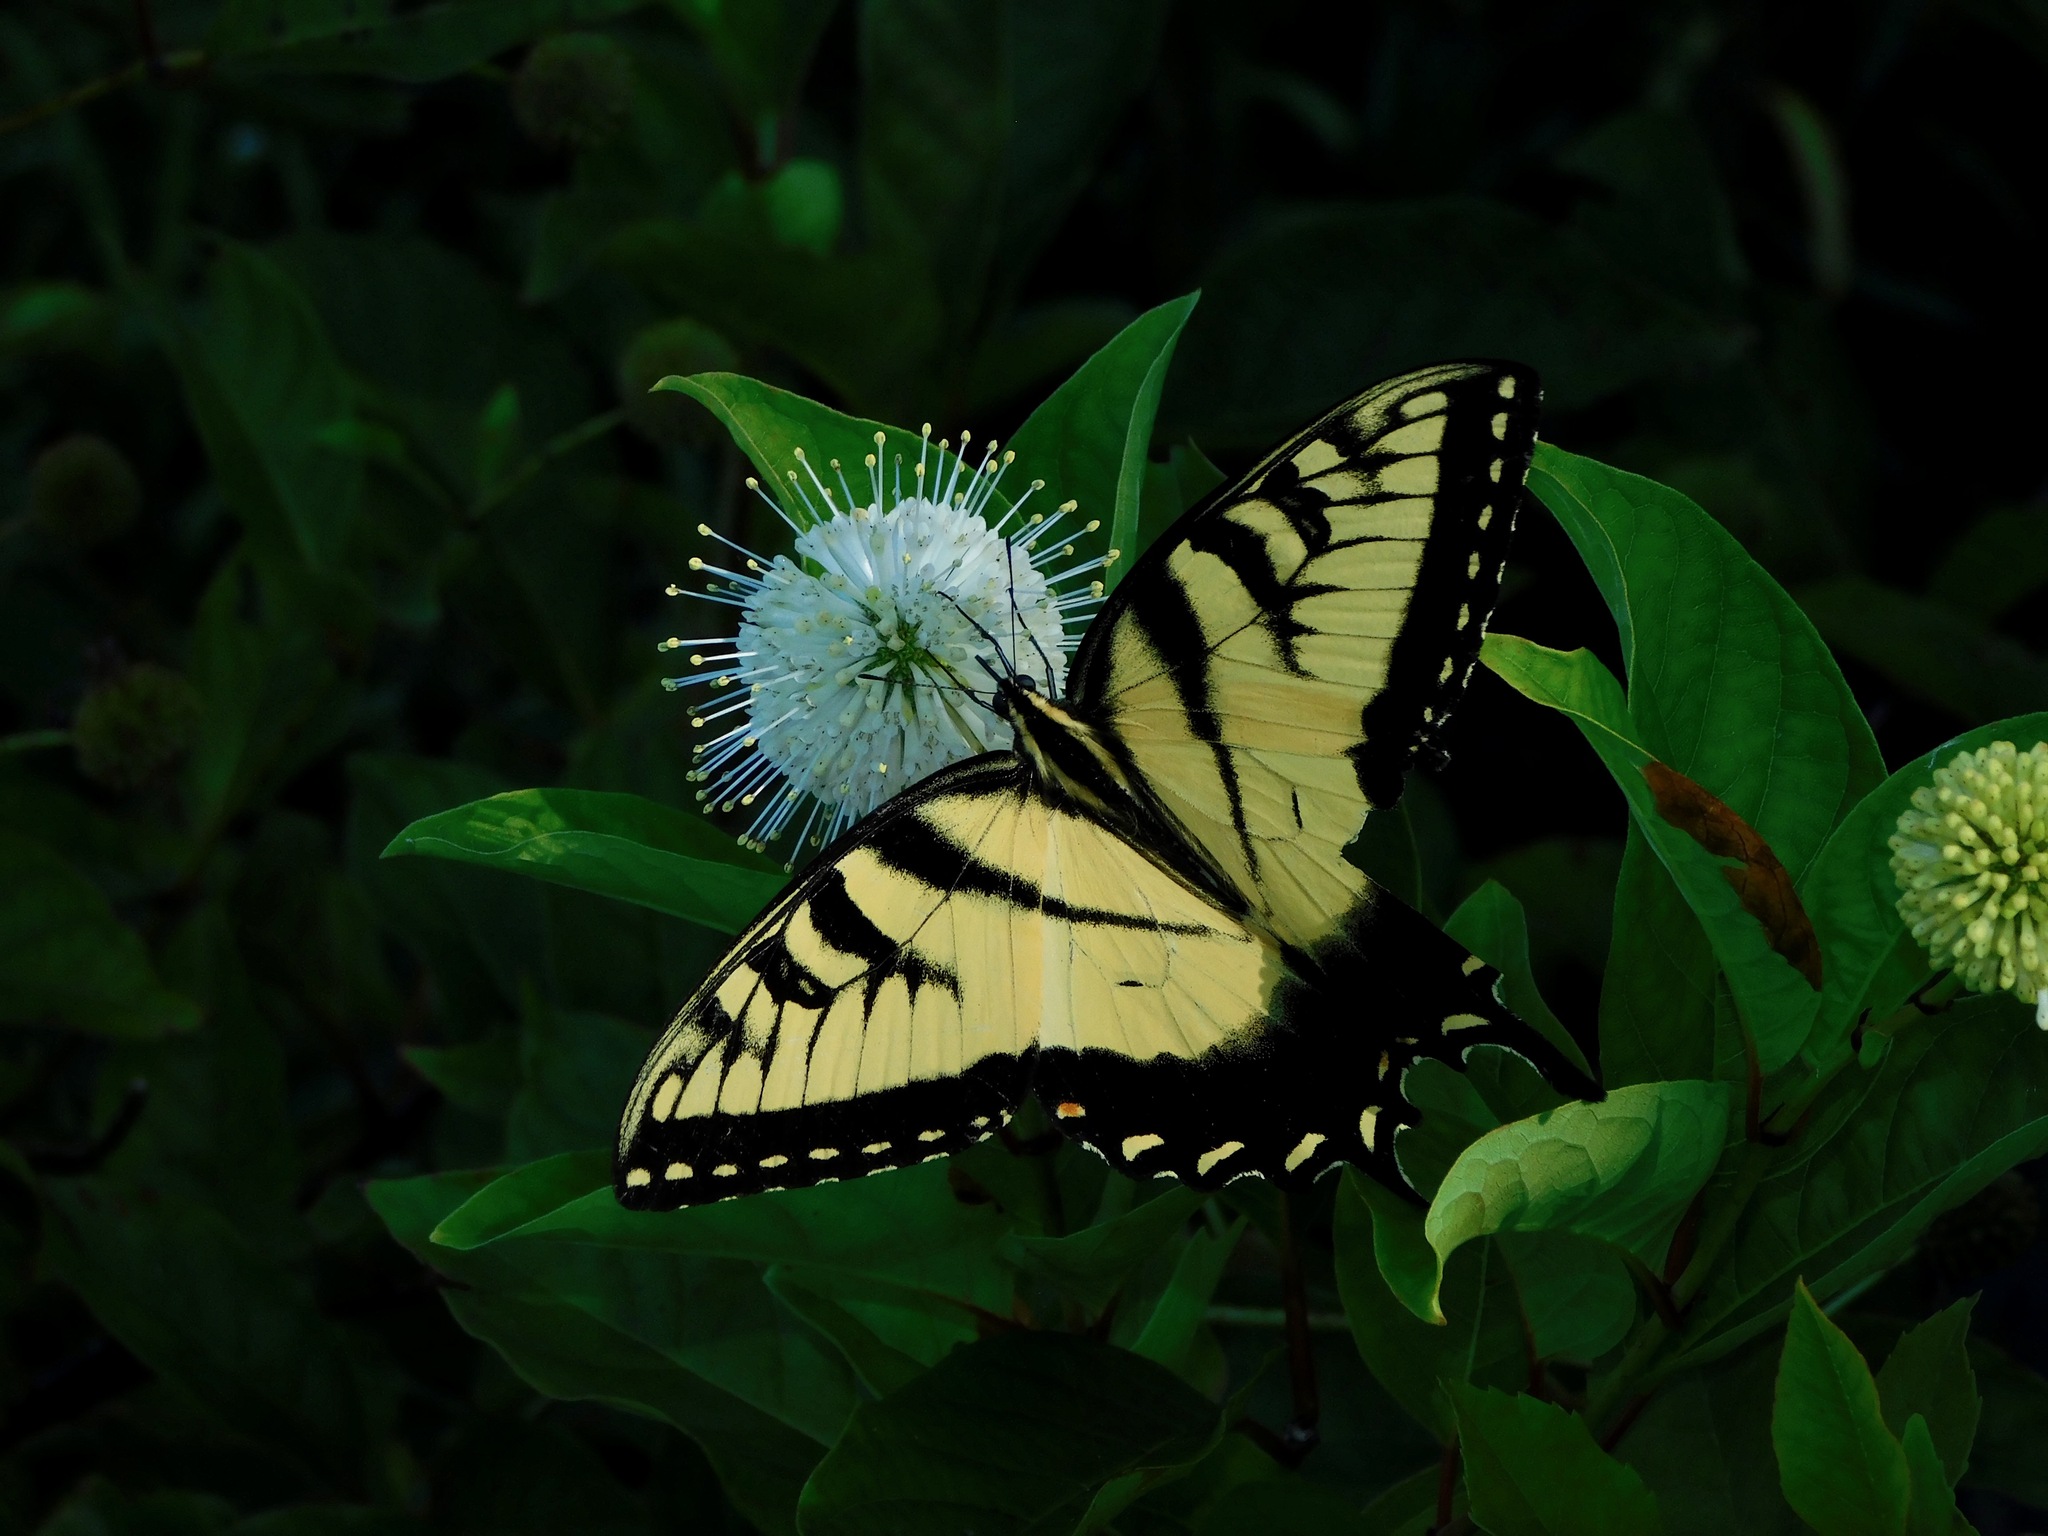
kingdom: Animalia
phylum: Arthropoda
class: Insecta
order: Lepidoptera
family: Papilionidae
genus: Papilio
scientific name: Papilio glaucus
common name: Tiger swallowtail
